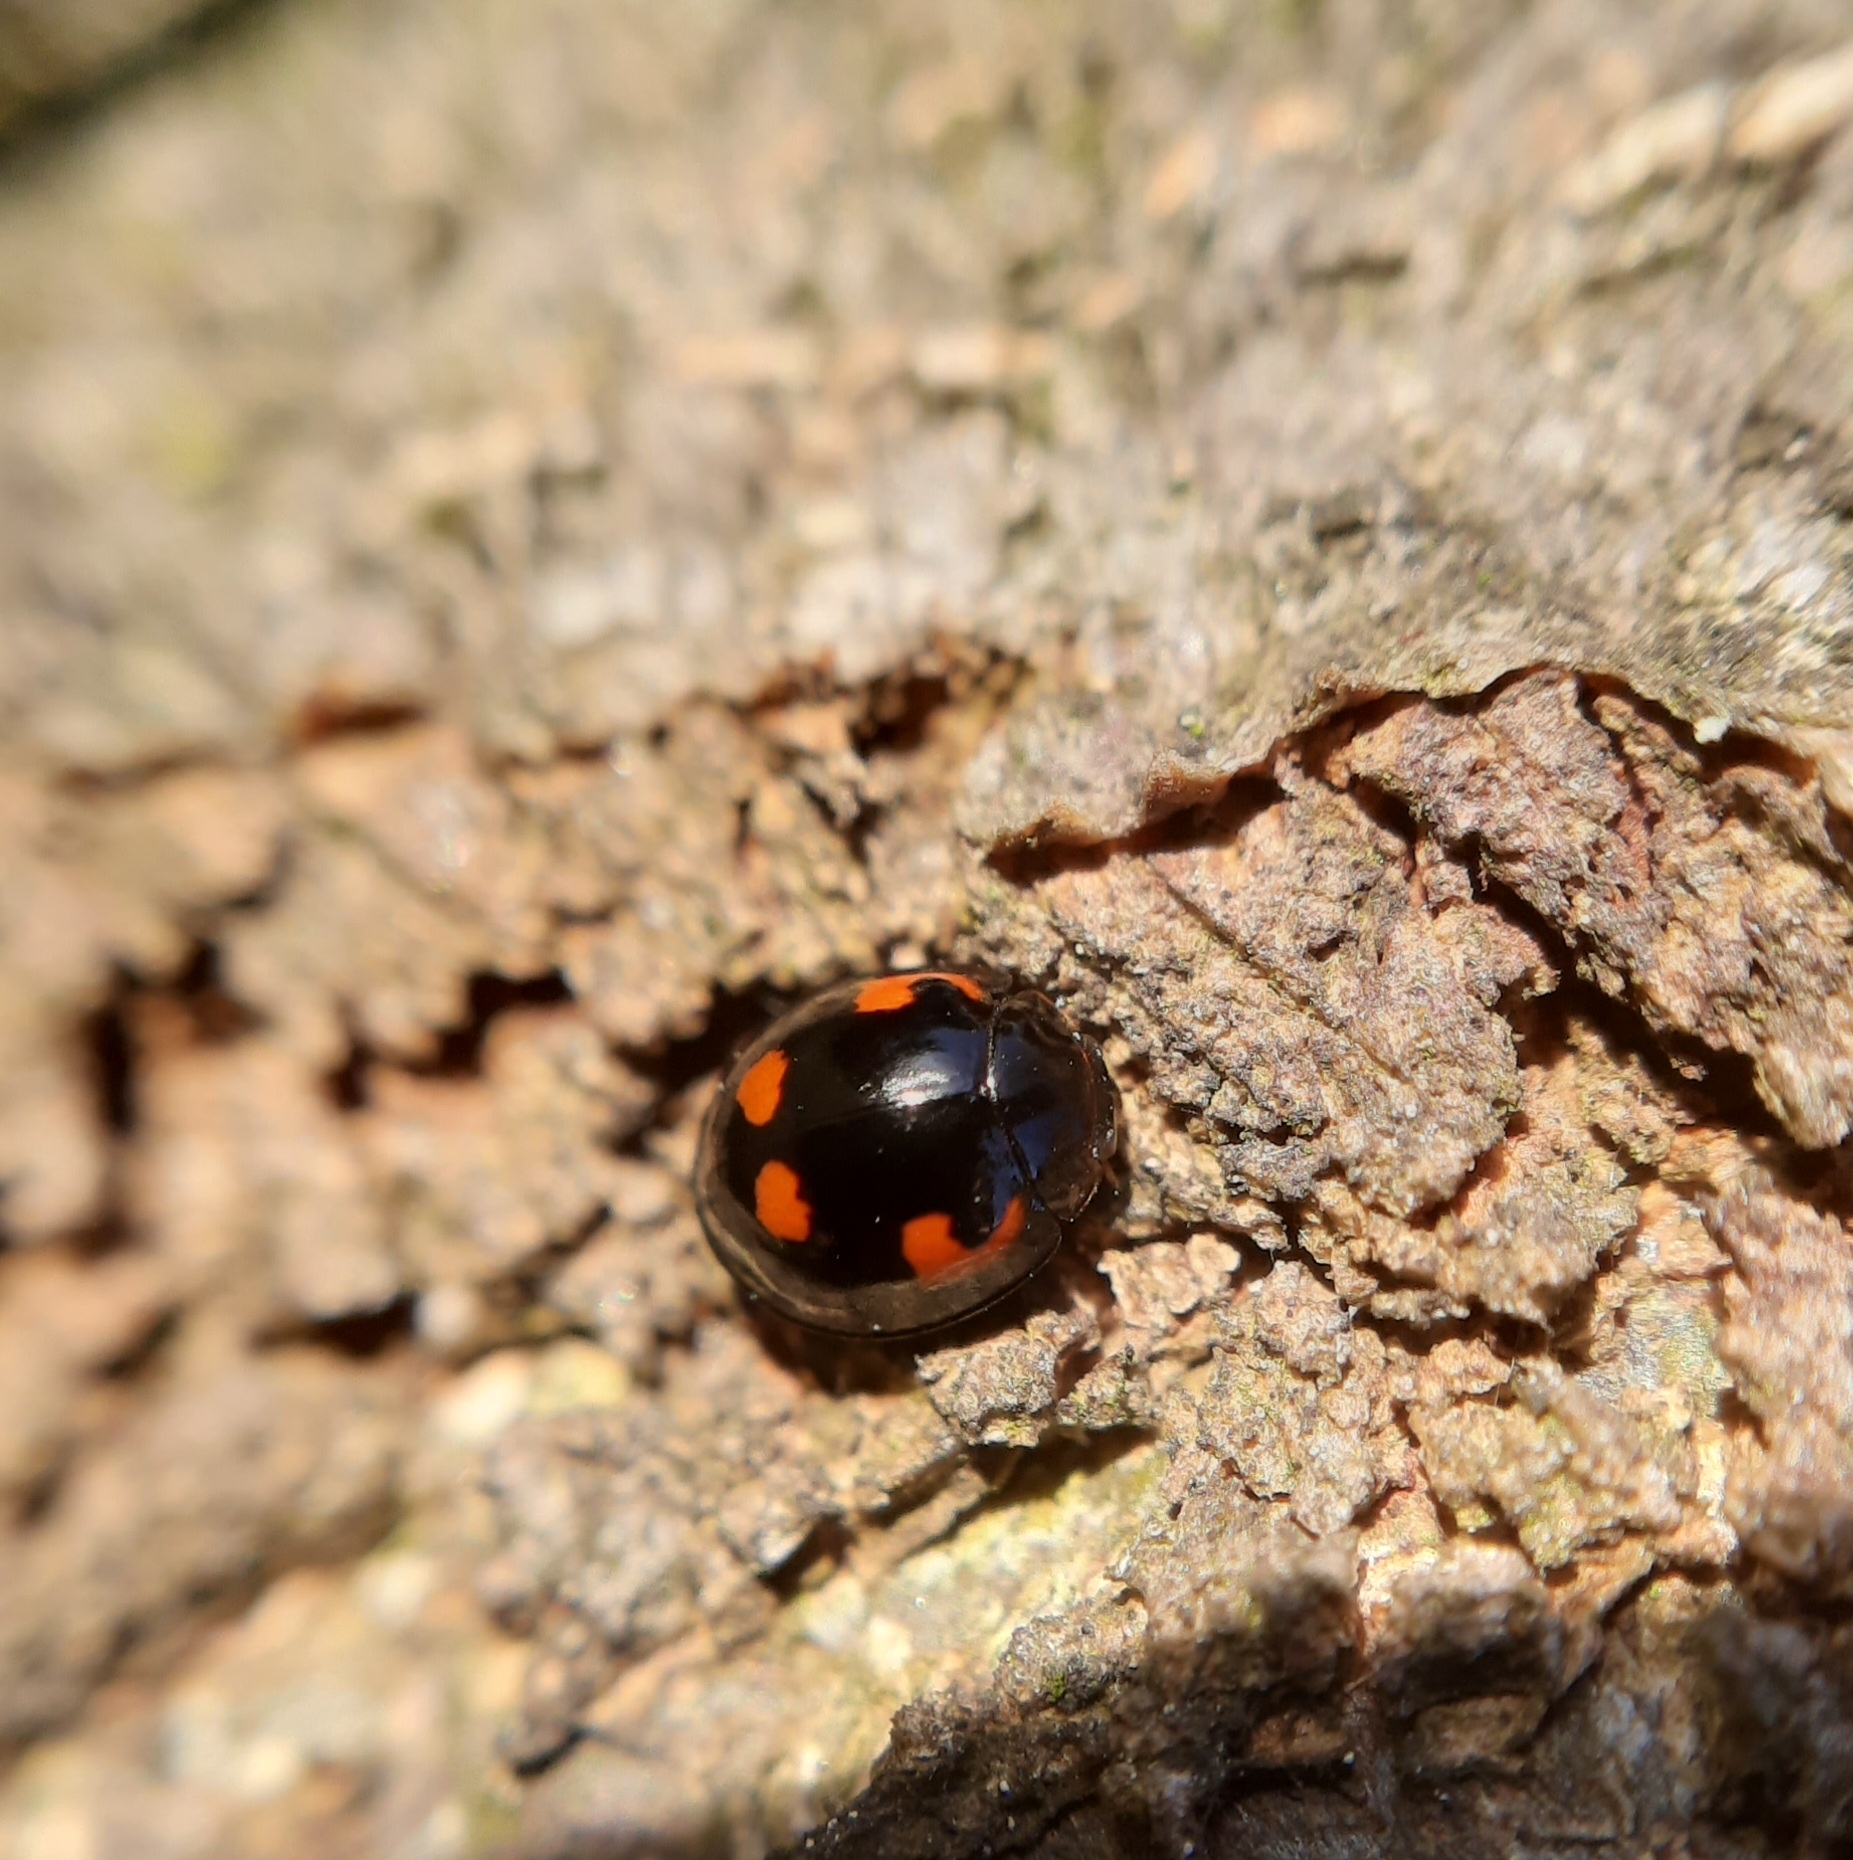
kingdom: Animalia
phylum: Arthropoda
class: Insecta
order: Coleoptera
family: Coccinellidae
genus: Brumus
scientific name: Brumus quadripustulatus
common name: Ladybird beetle
